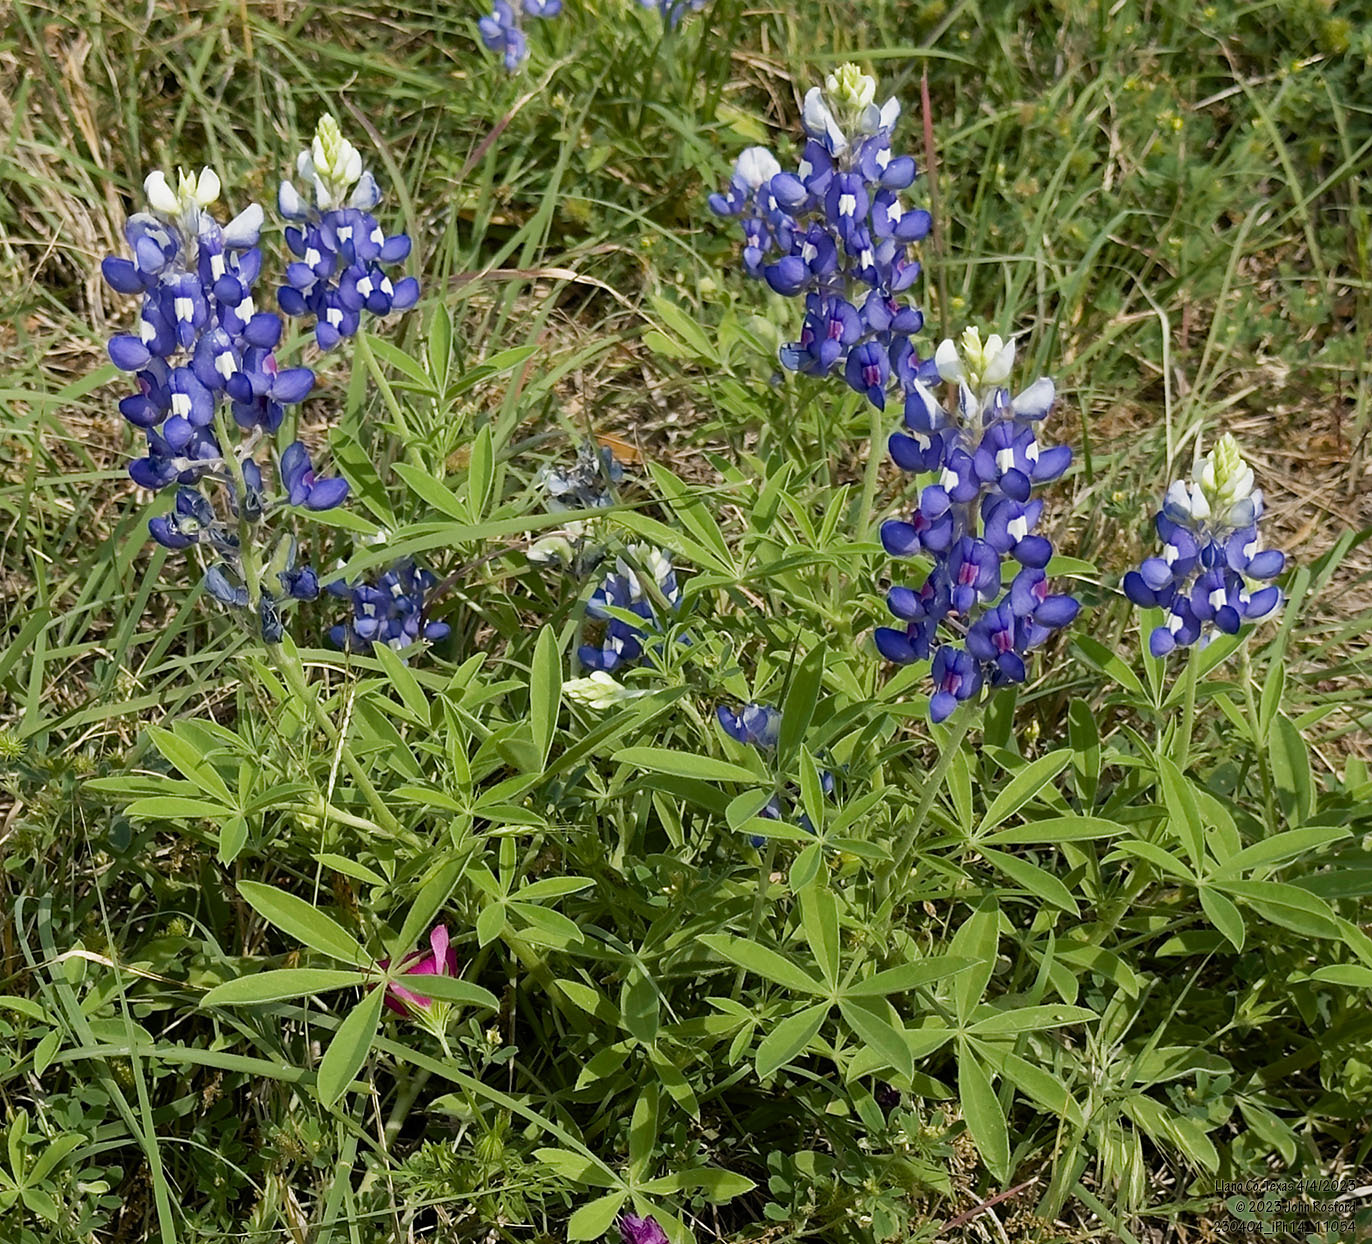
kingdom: Plantae
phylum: Tracheophyta
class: Magnoliopsida
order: Fabales
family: Fabaceae
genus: Lupinus
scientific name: Lupinus texensis
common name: Texas bluebonnet
